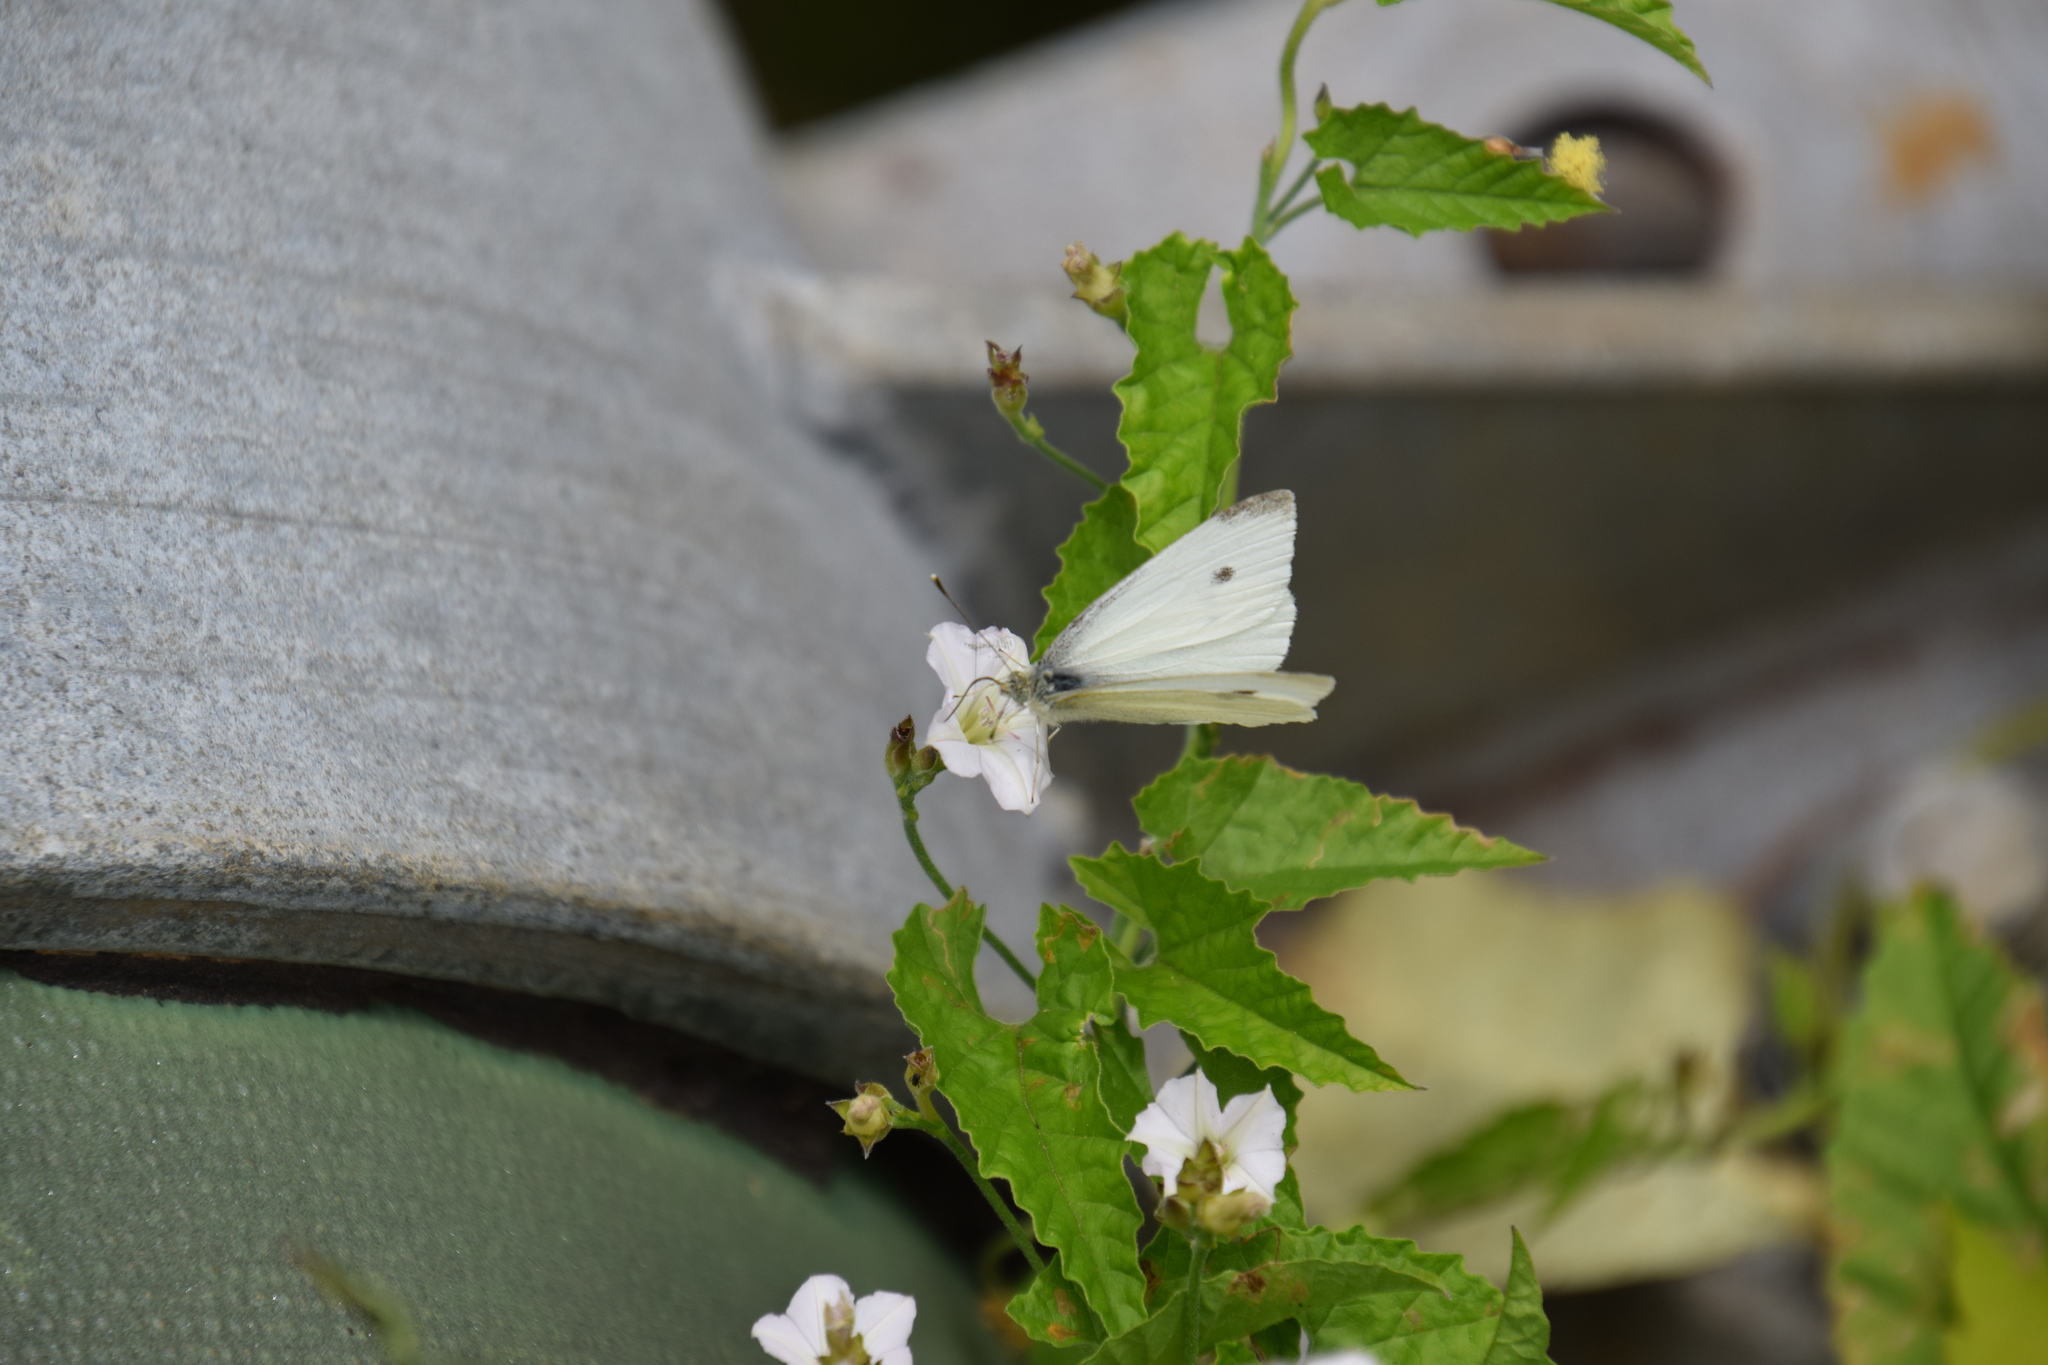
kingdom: Animalia
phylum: Arthropoda
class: Insecta
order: Lepidoptera
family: Pieridae
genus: Pieris
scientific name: Pieris rapae
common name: Small white
